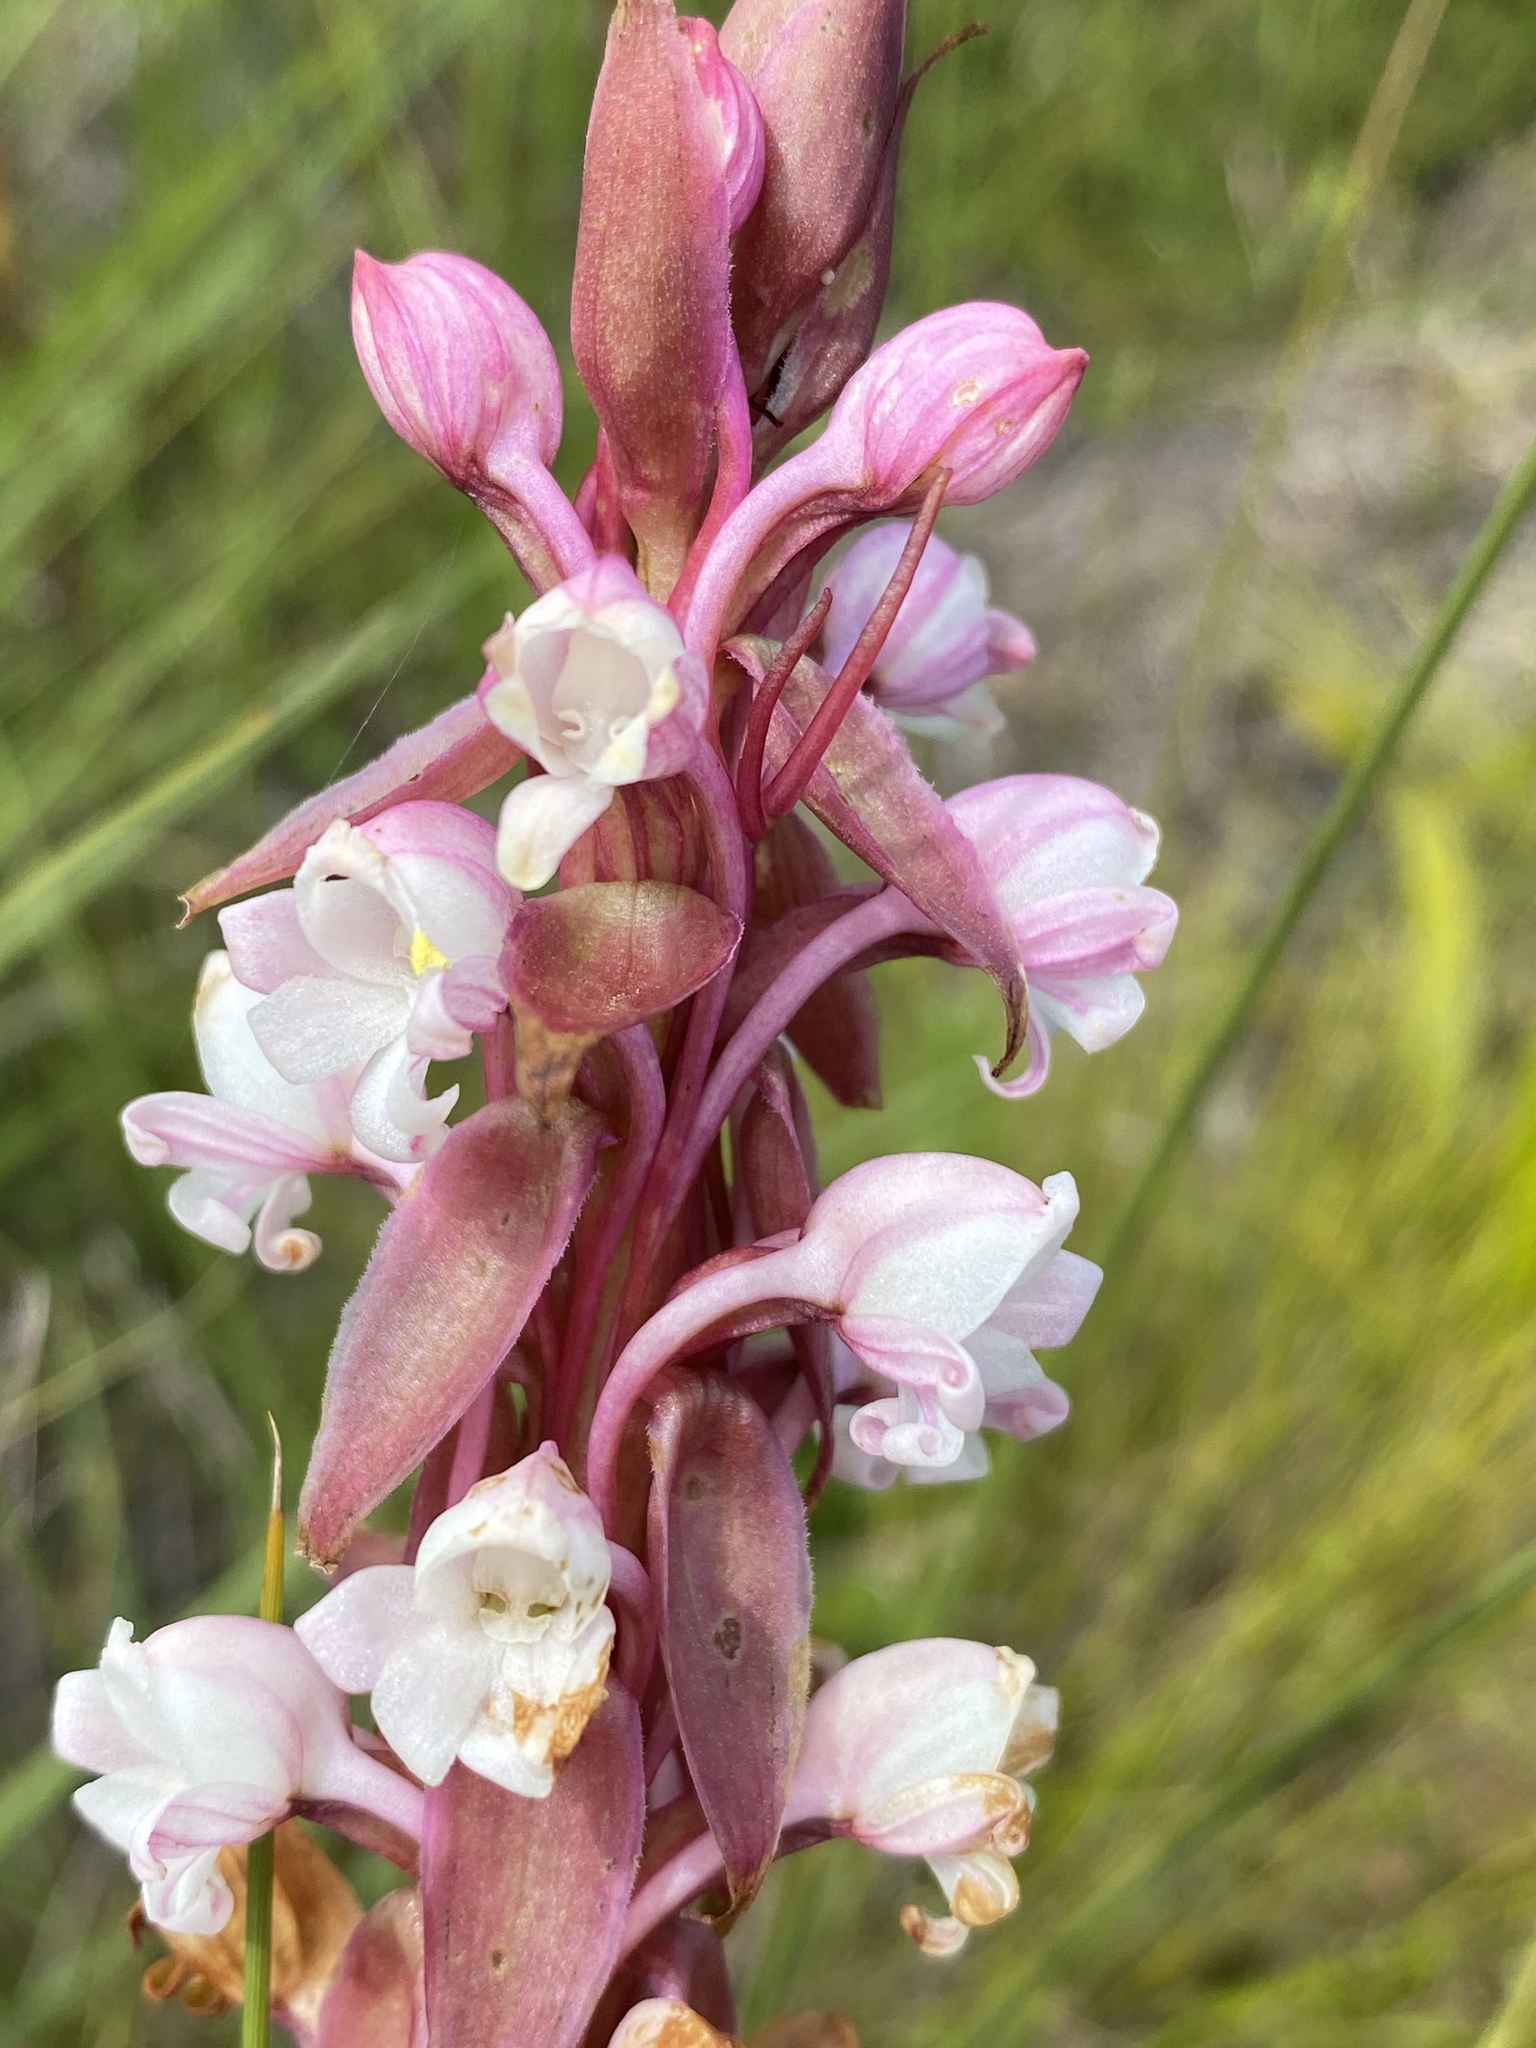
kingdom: Plantae
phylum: Tracheophyta
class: Liliopsida
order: Asparagales
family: Orchidaceae
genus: Satyrium
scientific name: Satyrium acuminatum
